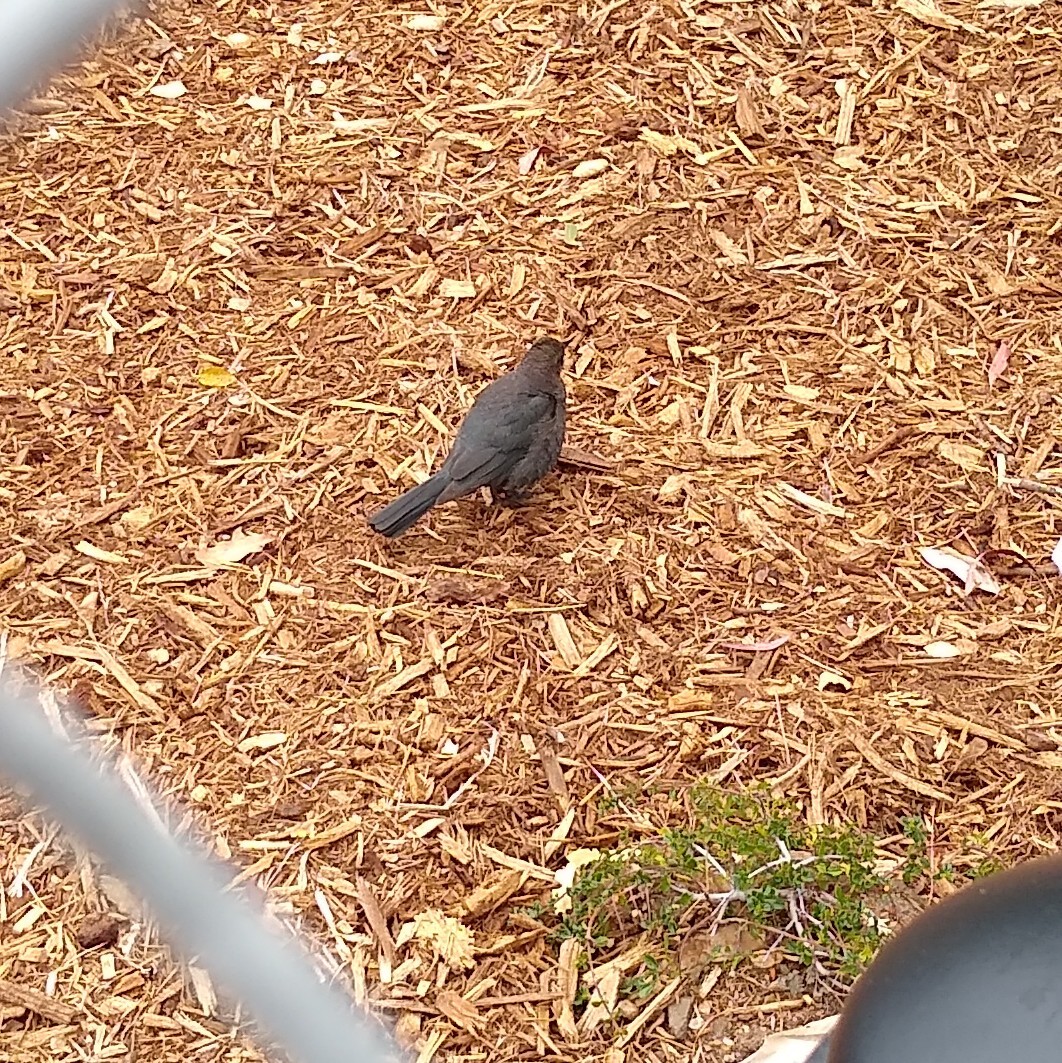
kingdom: Animalia
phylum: Chordata
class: Aves
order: Passeriformes
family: Icteridae
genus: Euphagus
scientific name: Euphagus cyanocephalus
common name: Brewer's blackbird
